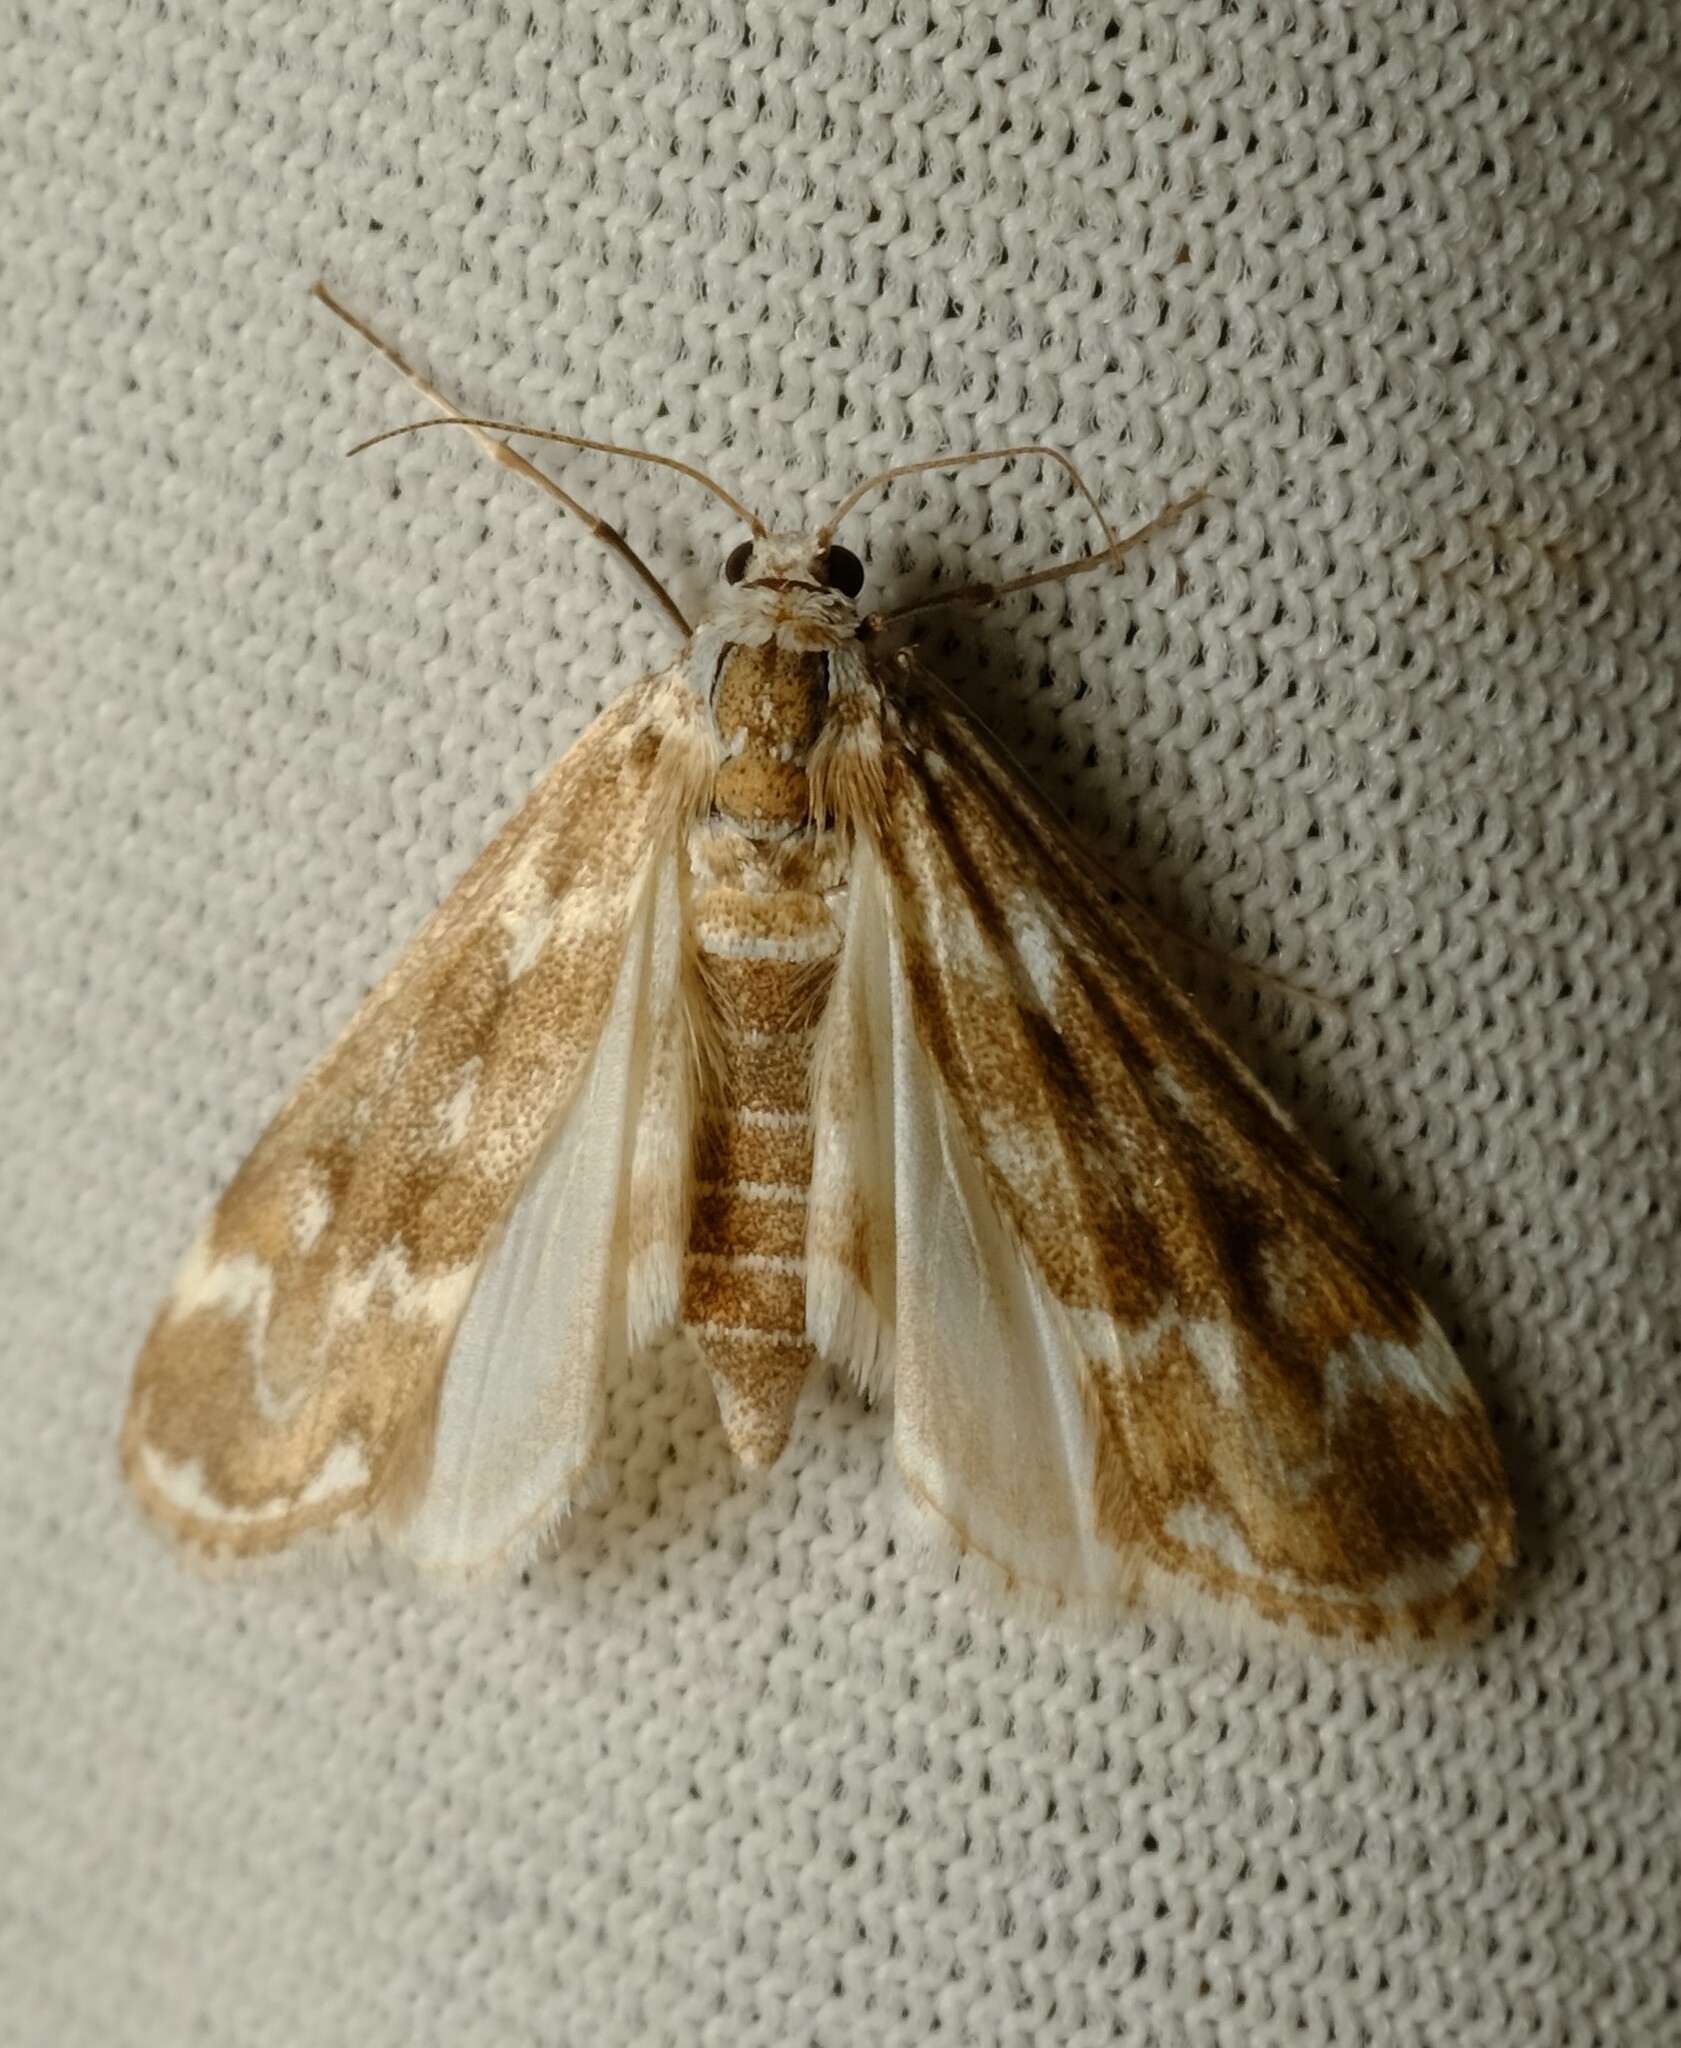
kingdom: Animalia
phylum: Arthropoda
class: Insecta
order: Lepidoptera
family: Crambidae
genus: Hygraula
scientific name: Hygraula nitens
